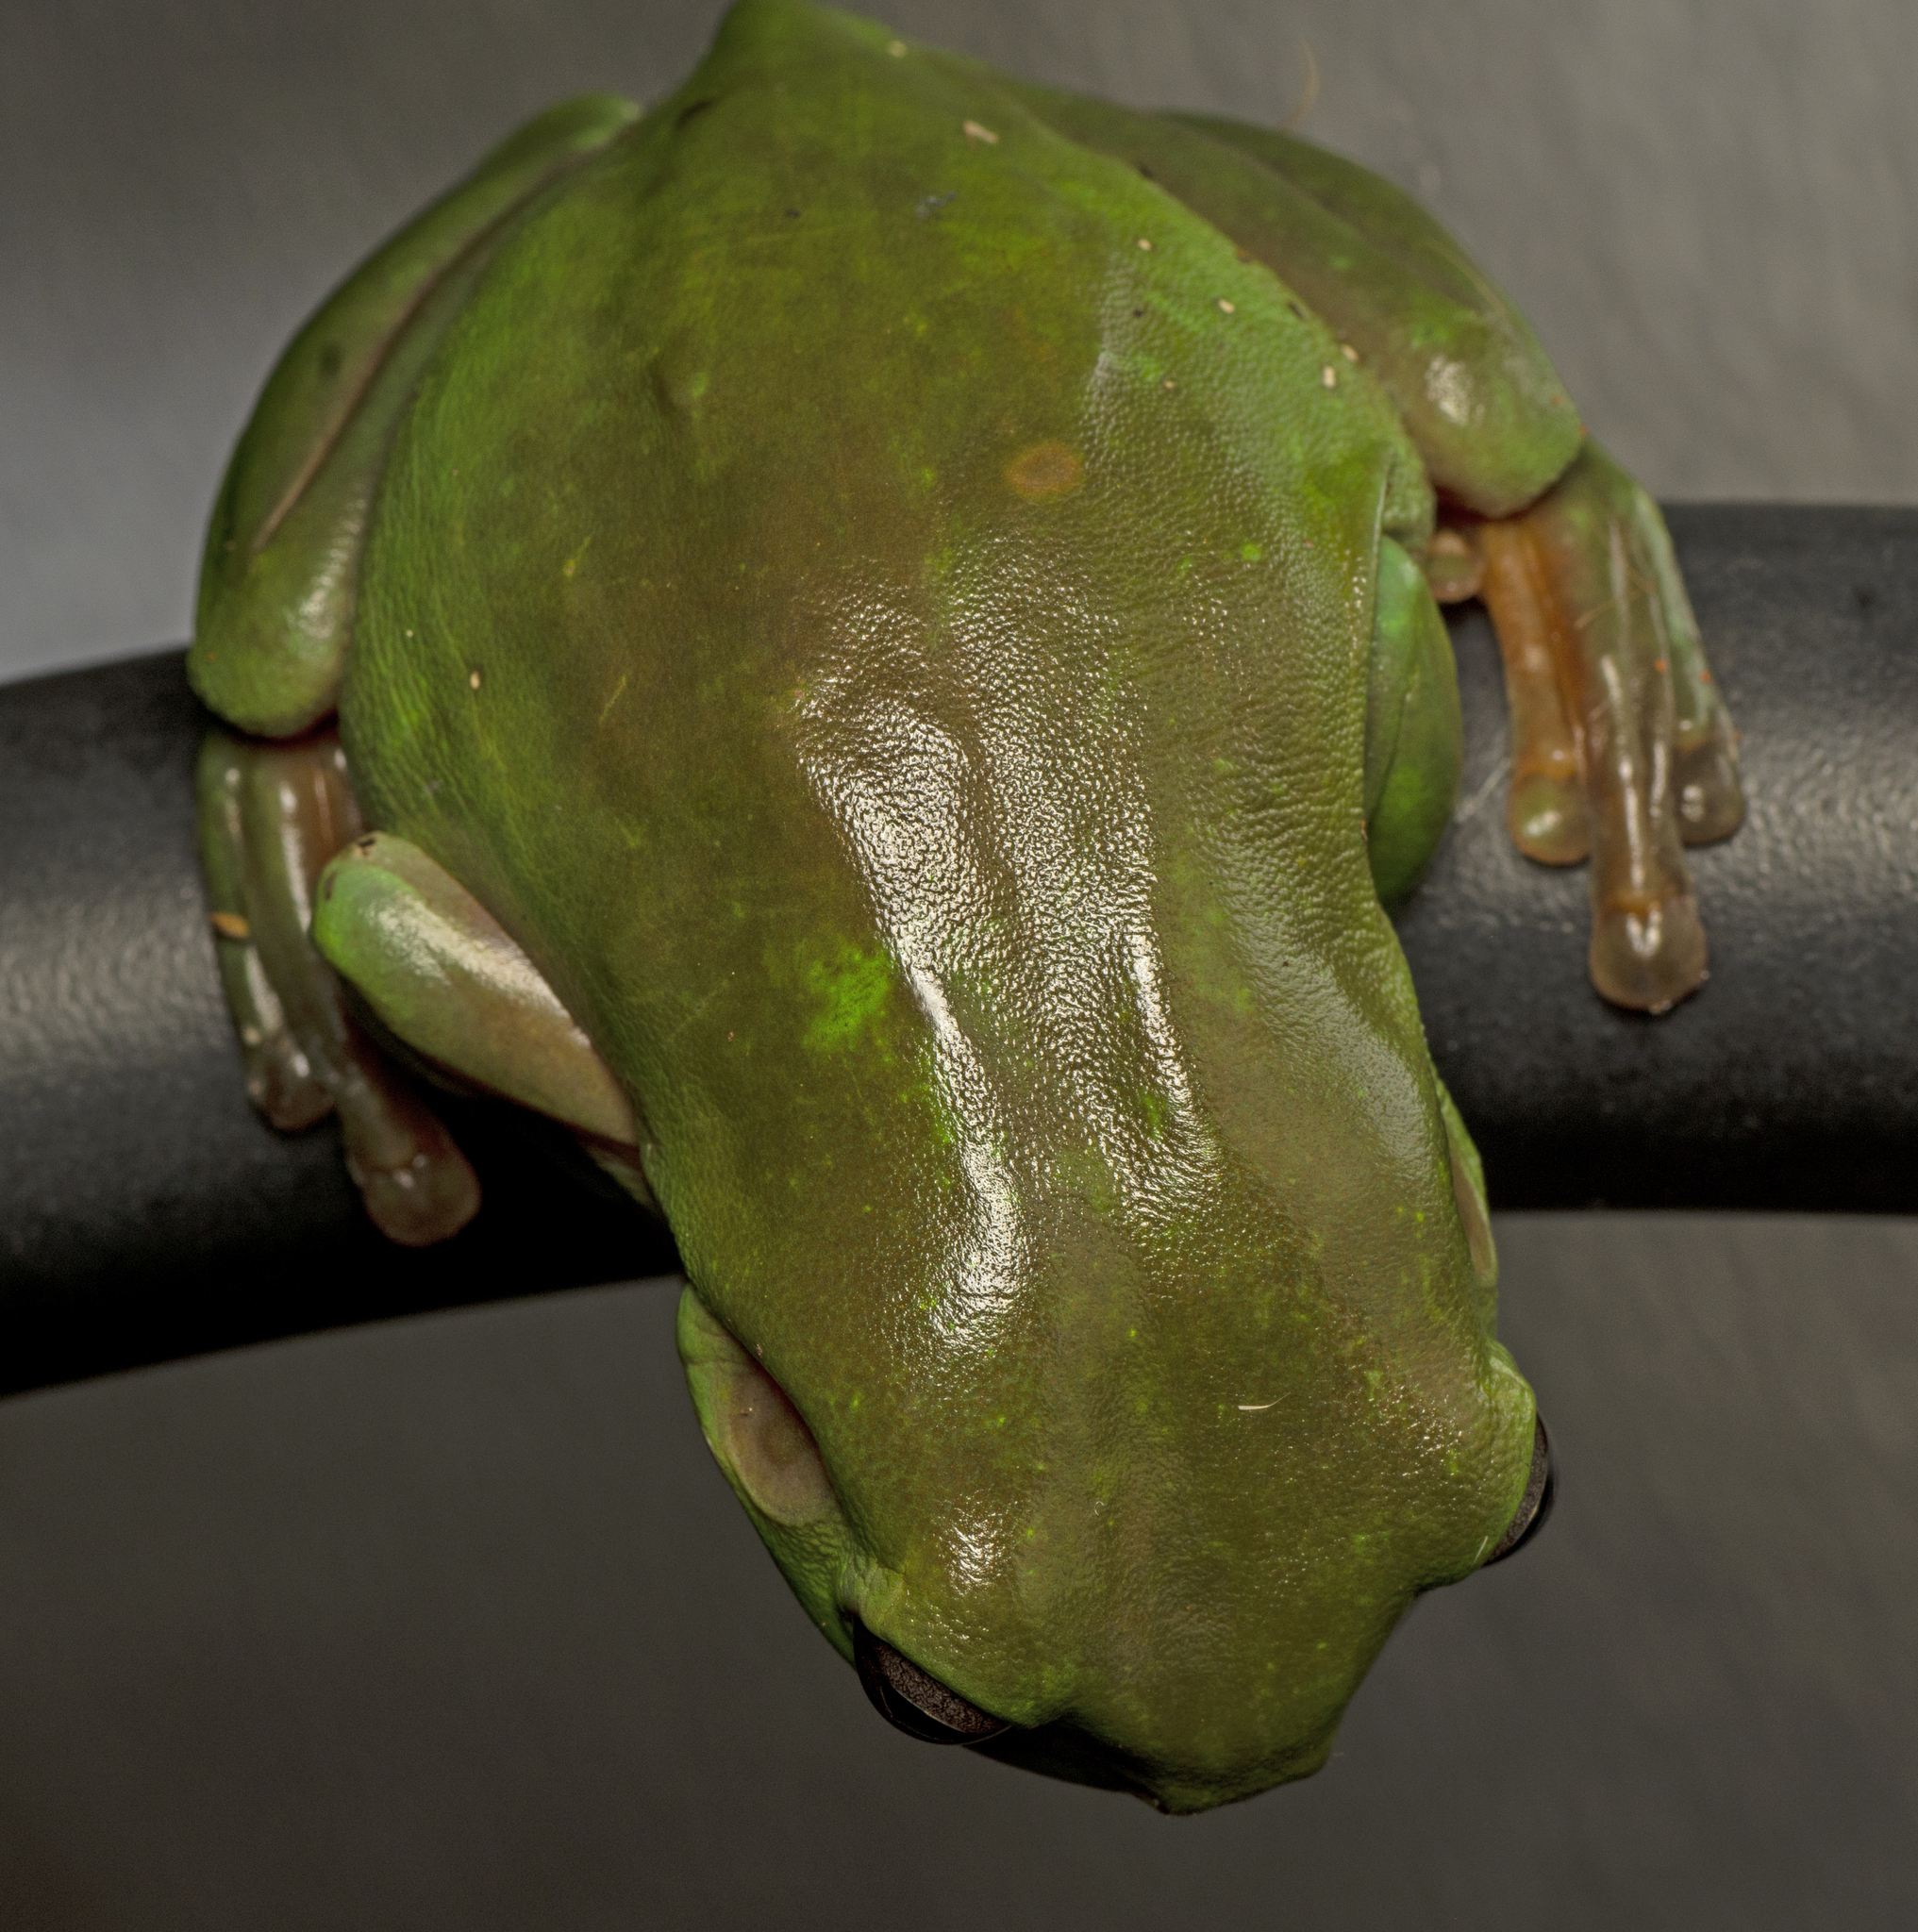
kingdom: Animalia
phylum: Chordata
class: Amphibia
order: Anura
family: Pelodryadidae
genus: Ranoidea
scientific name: Ranoidea caerulea
